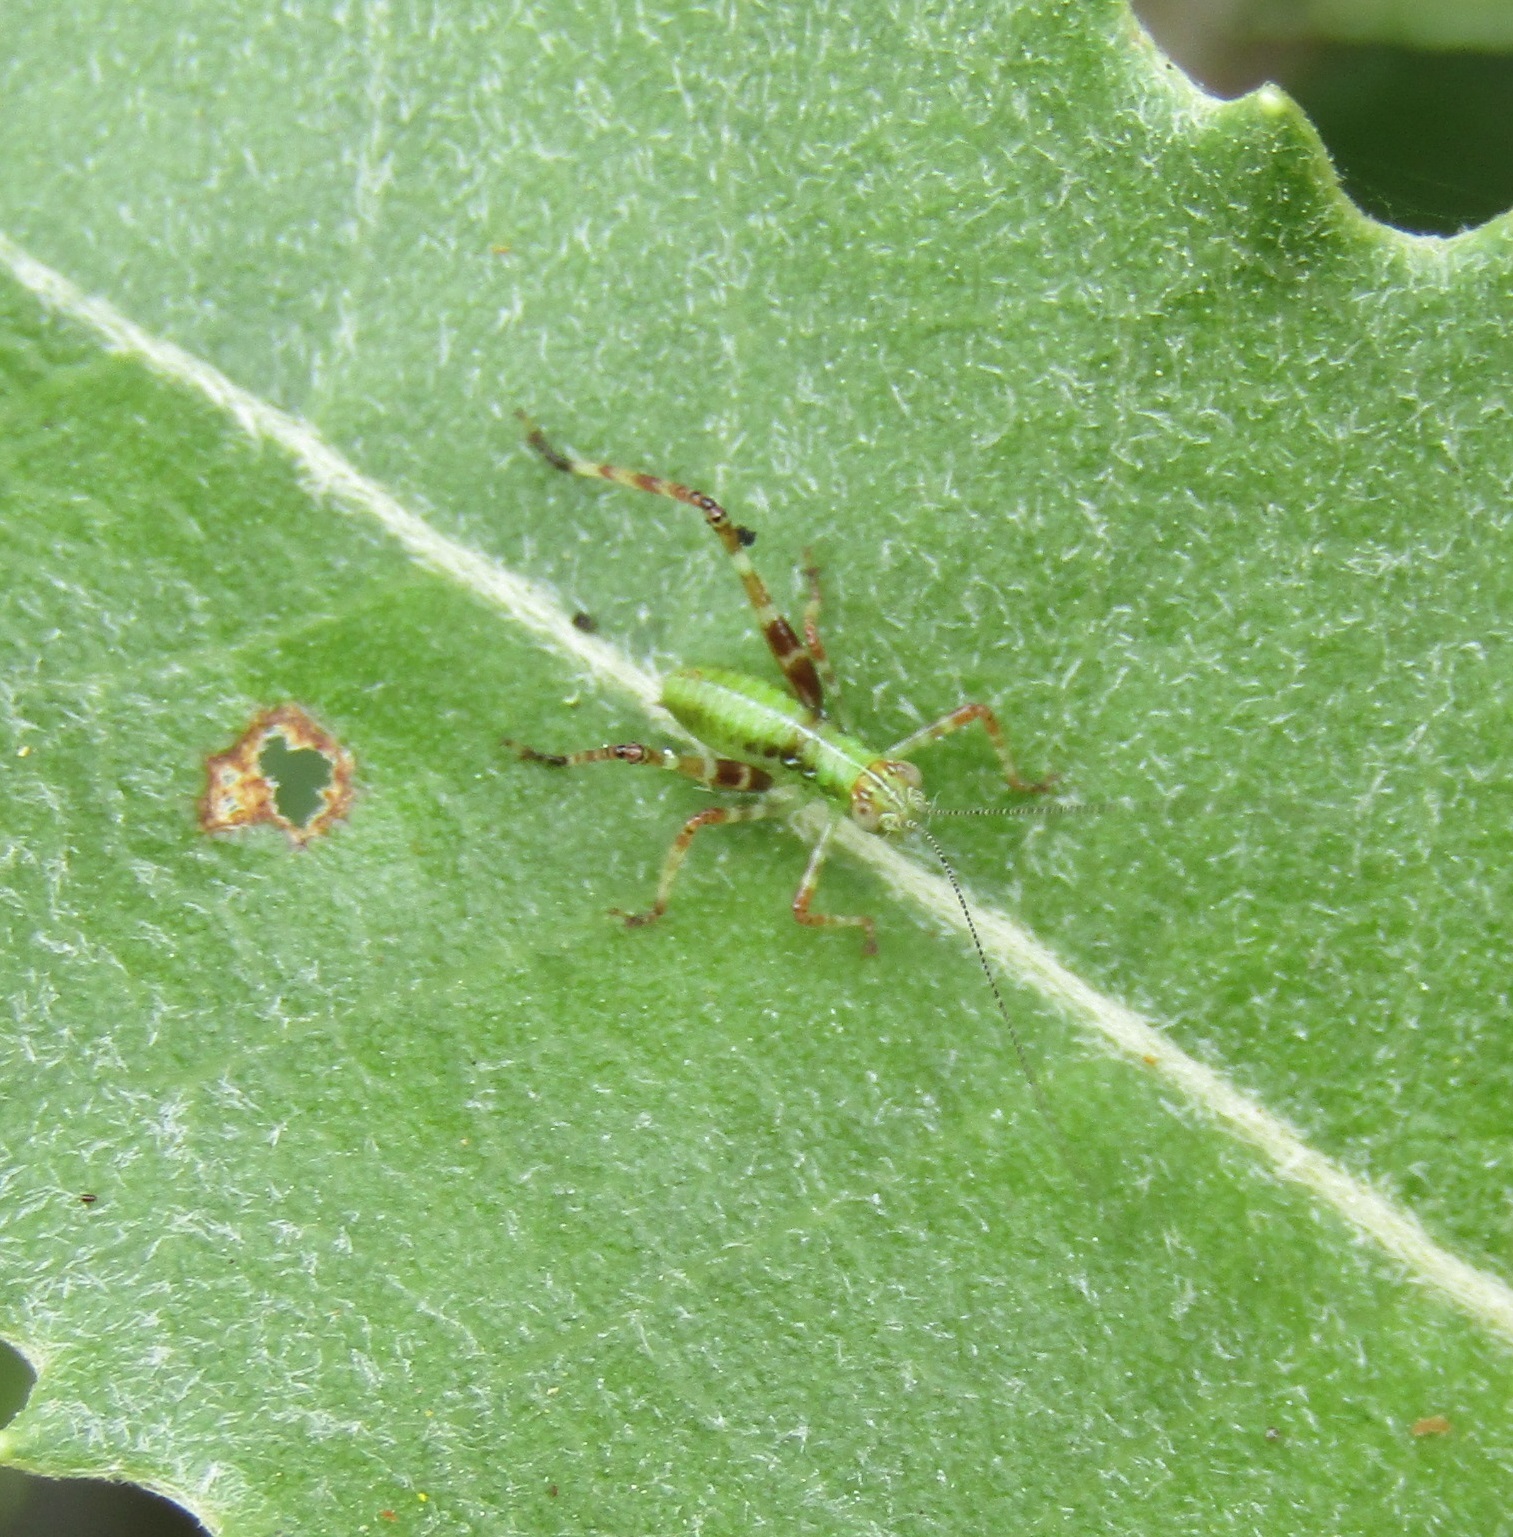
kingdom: Animalia
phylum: Arthropoda
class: Insecta
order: Orthoptera
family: Tettigoniidae
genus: Caedicia
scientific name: Caedicia simplex
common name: Common garden katydid
